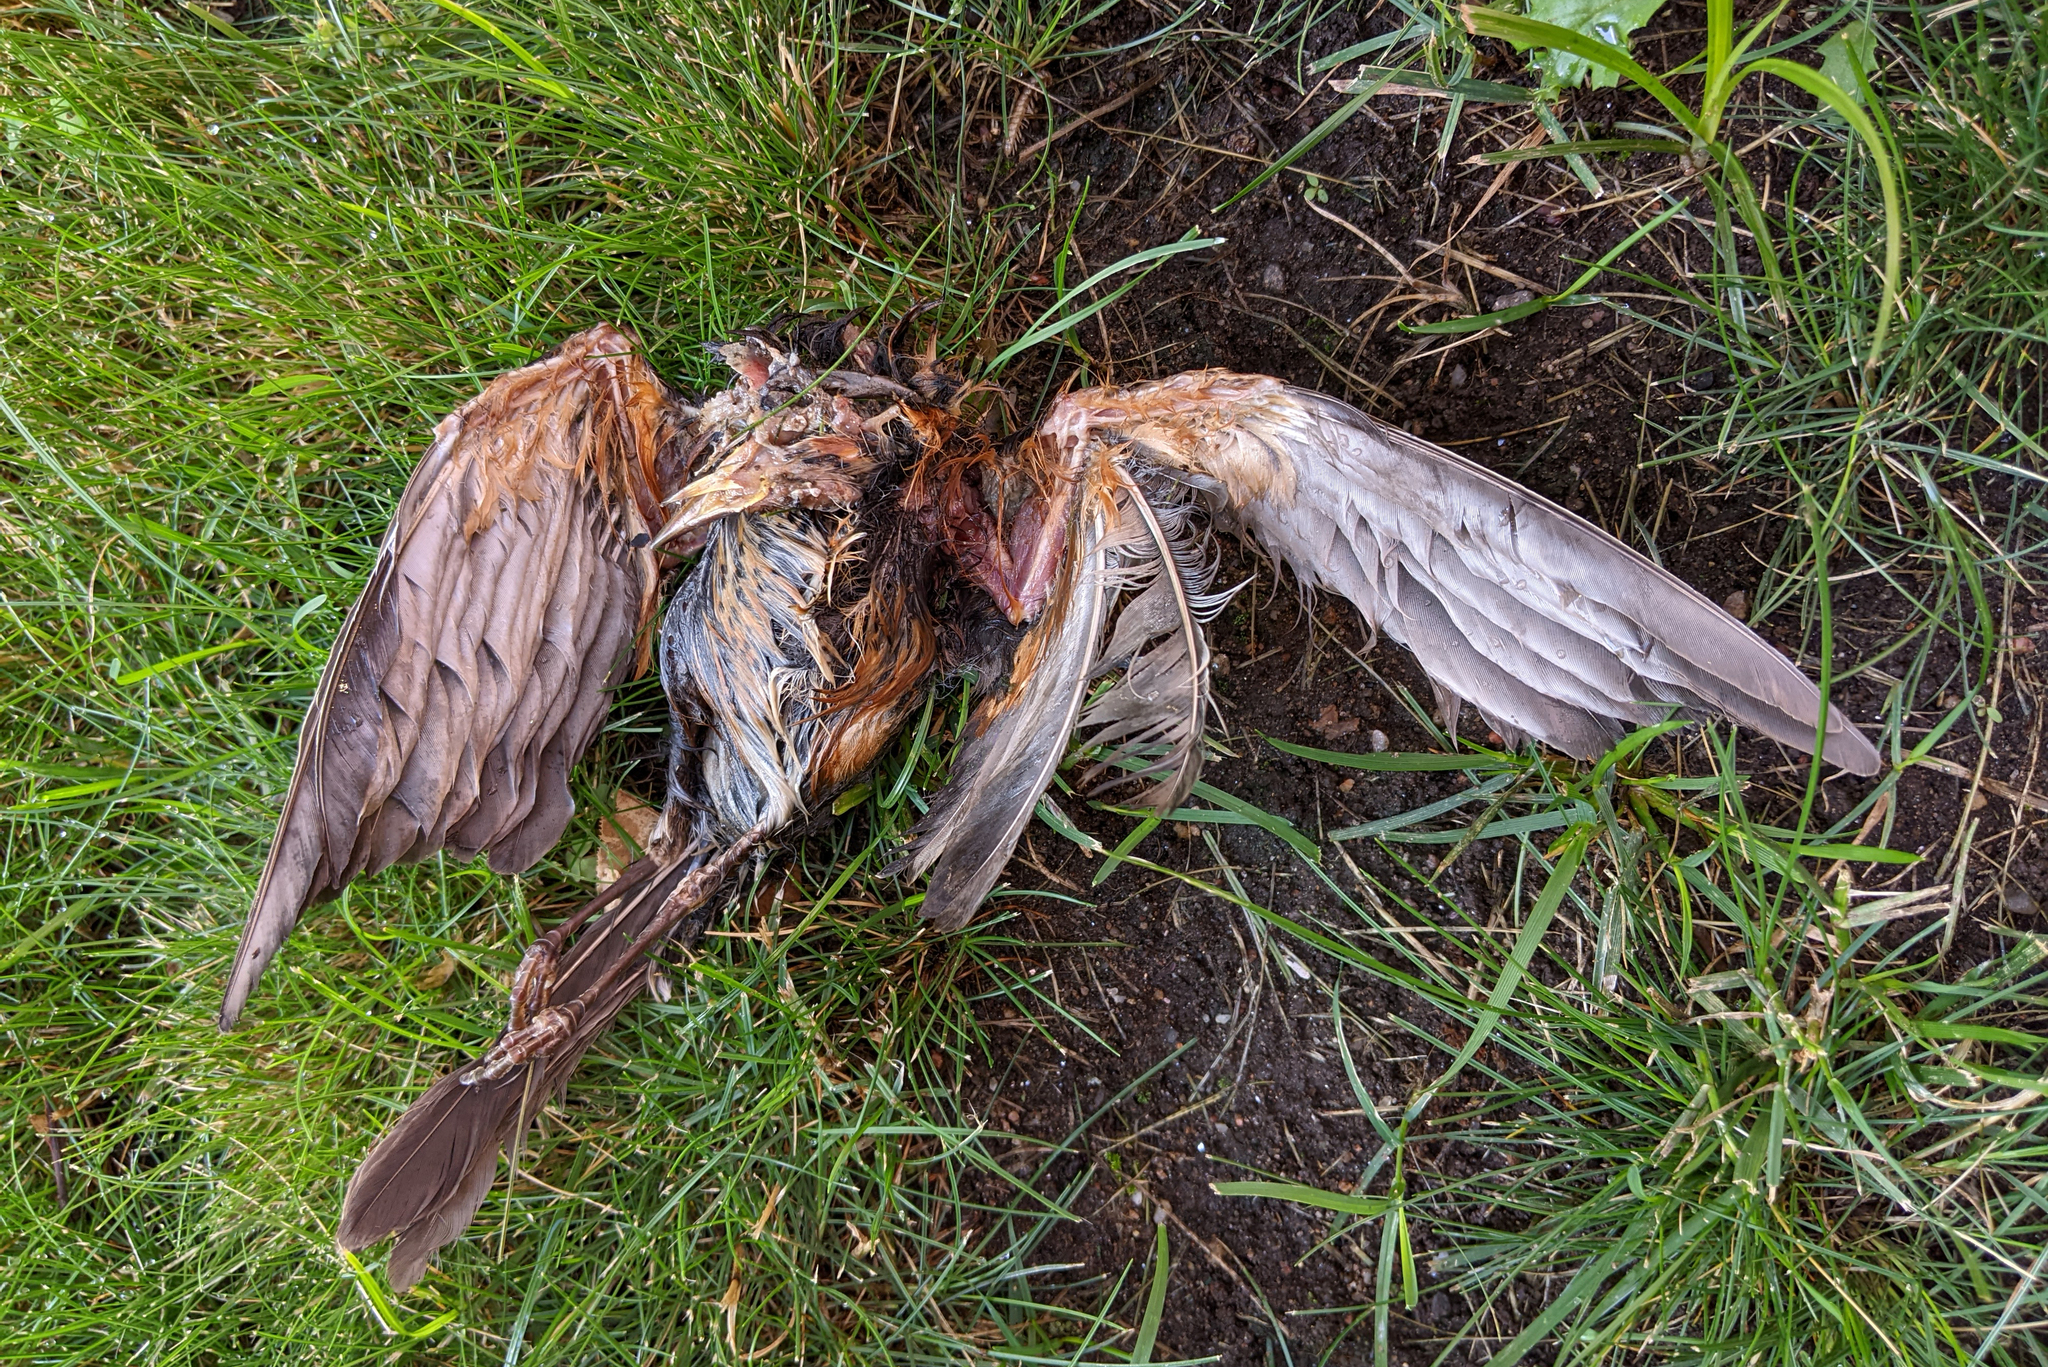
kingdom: Animalia
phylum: Chordata
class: Aves
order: Passeriformes
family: Turdidae
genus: Turdus
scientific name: Turdus migratorius
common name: American robin
